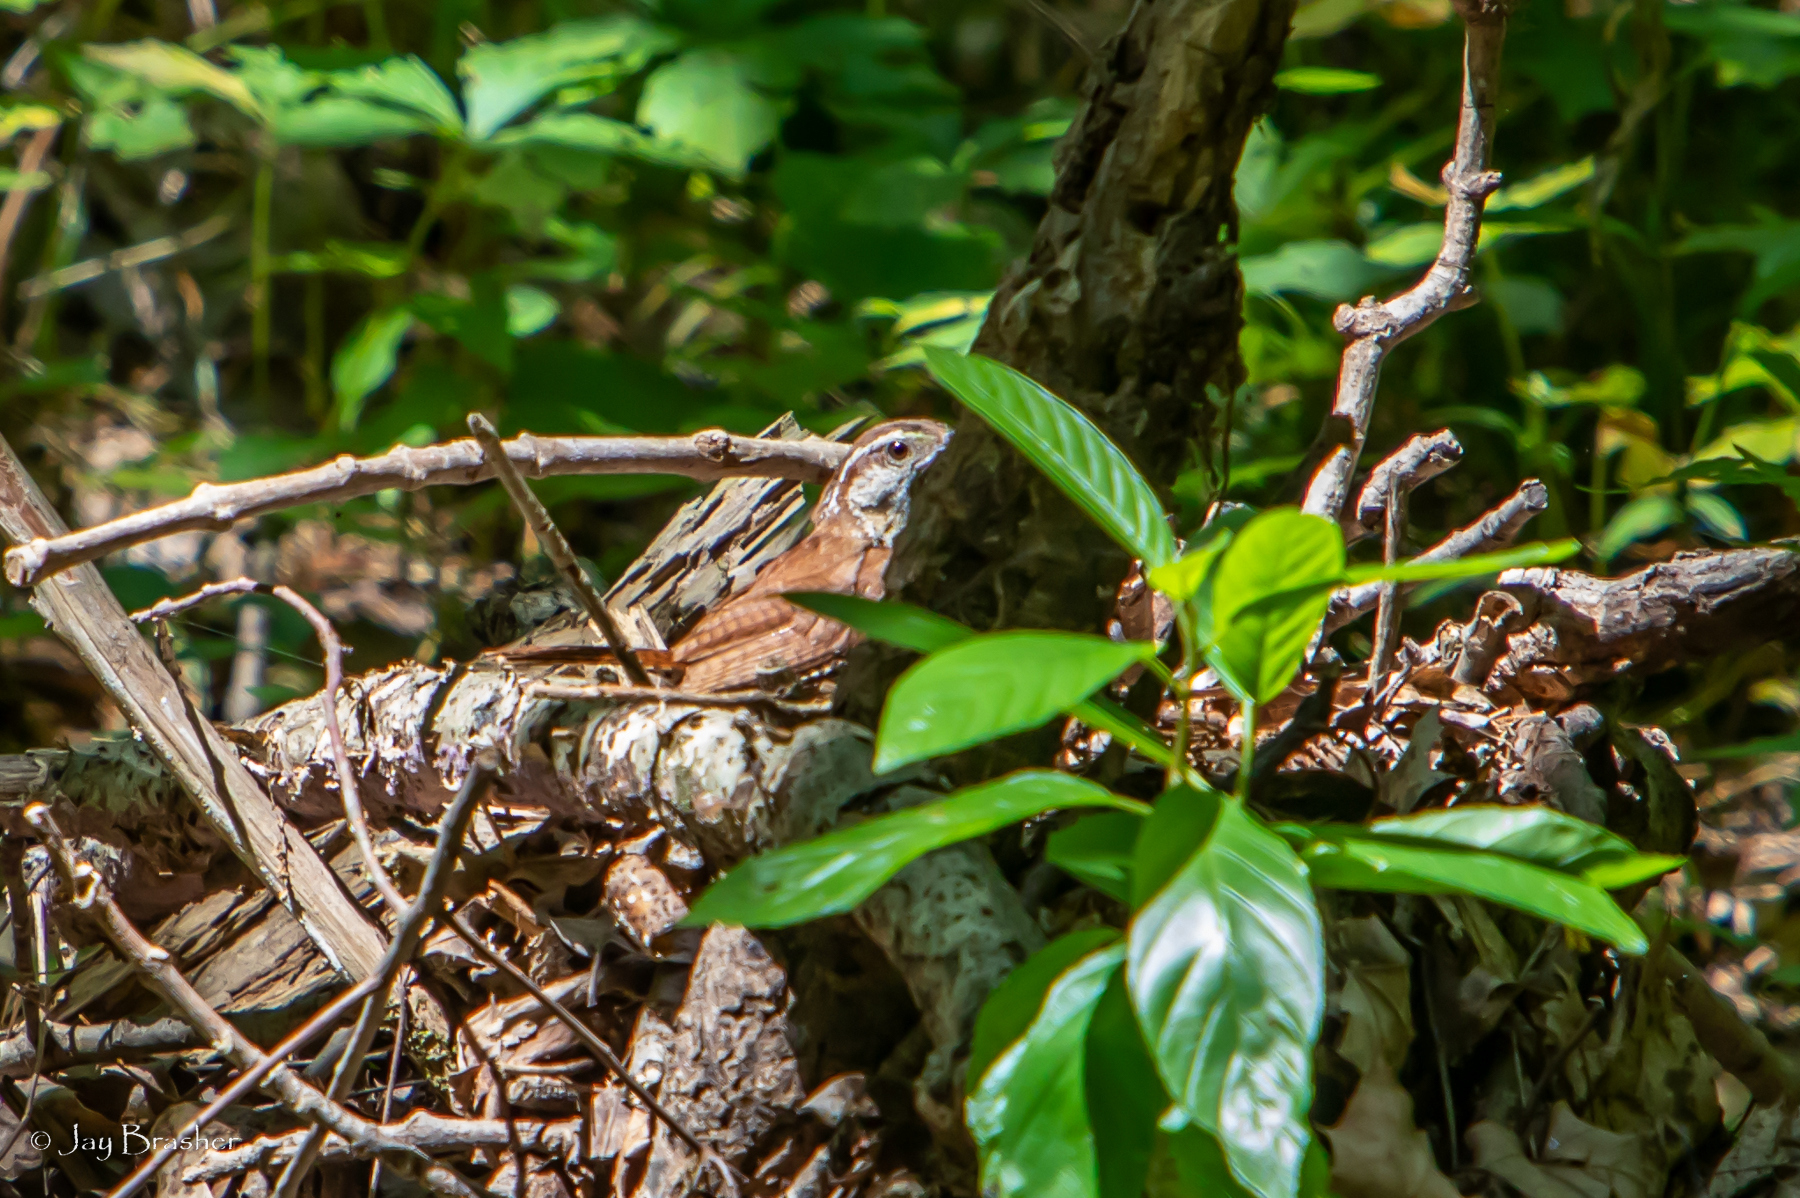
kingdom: Animalia
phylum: Chordata
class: Aves
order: Passeriformes
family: Troglodytidae
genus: Thryothorus
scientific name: Thryothorus ludovicianus
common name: Carolina wren
